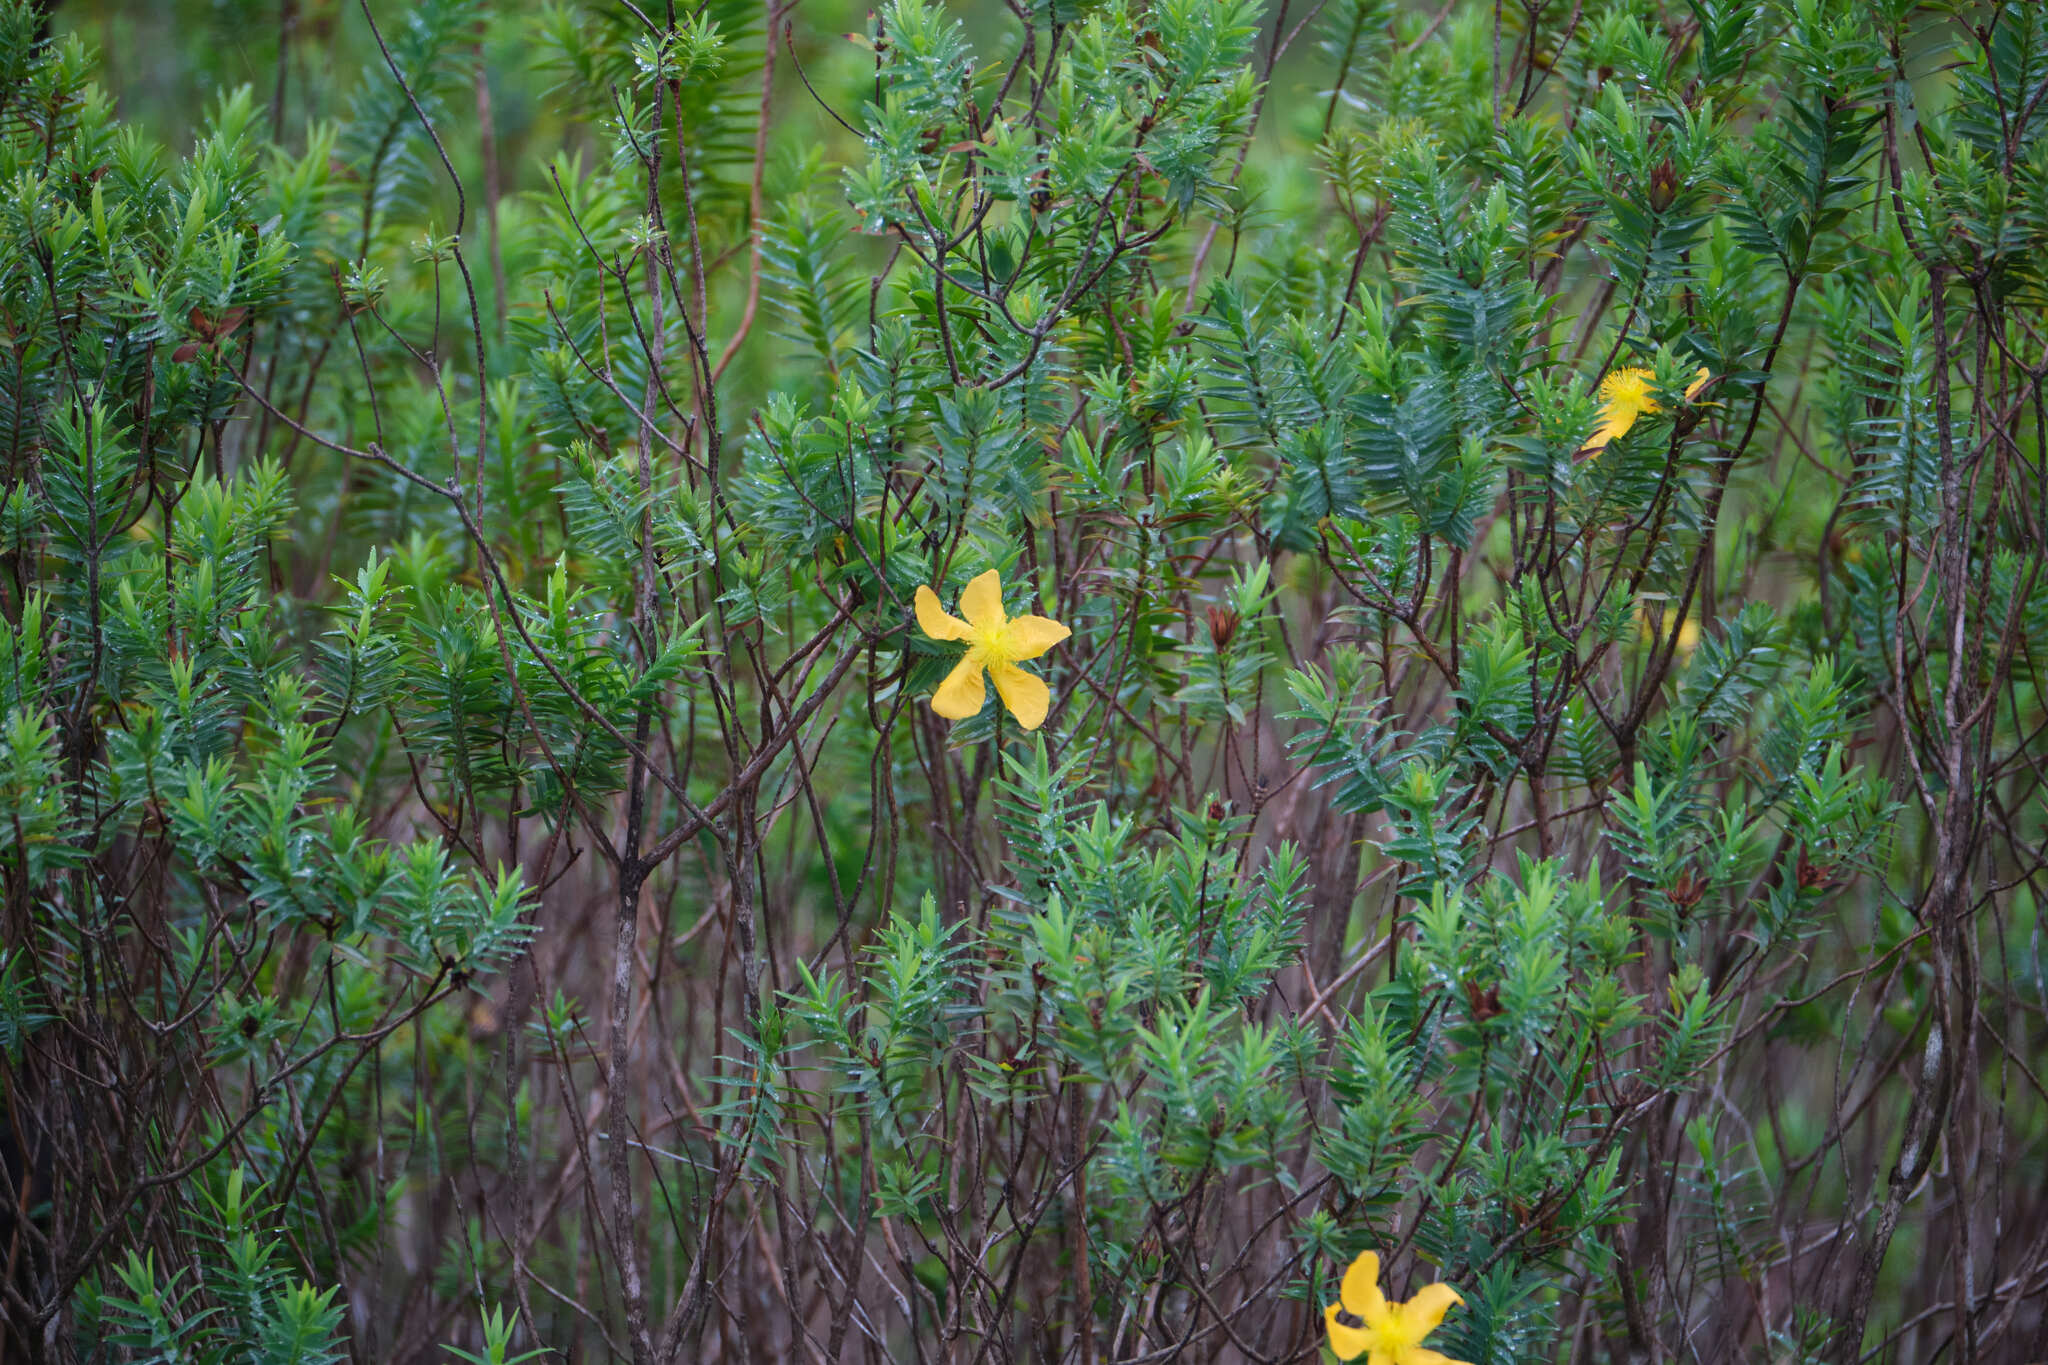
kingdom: Plantae
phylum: Tracheophyta
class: Magnoliopsida
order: Malpighiales
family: Hypericaceae
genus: Hypericum
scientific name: Hypericum styphelioides
